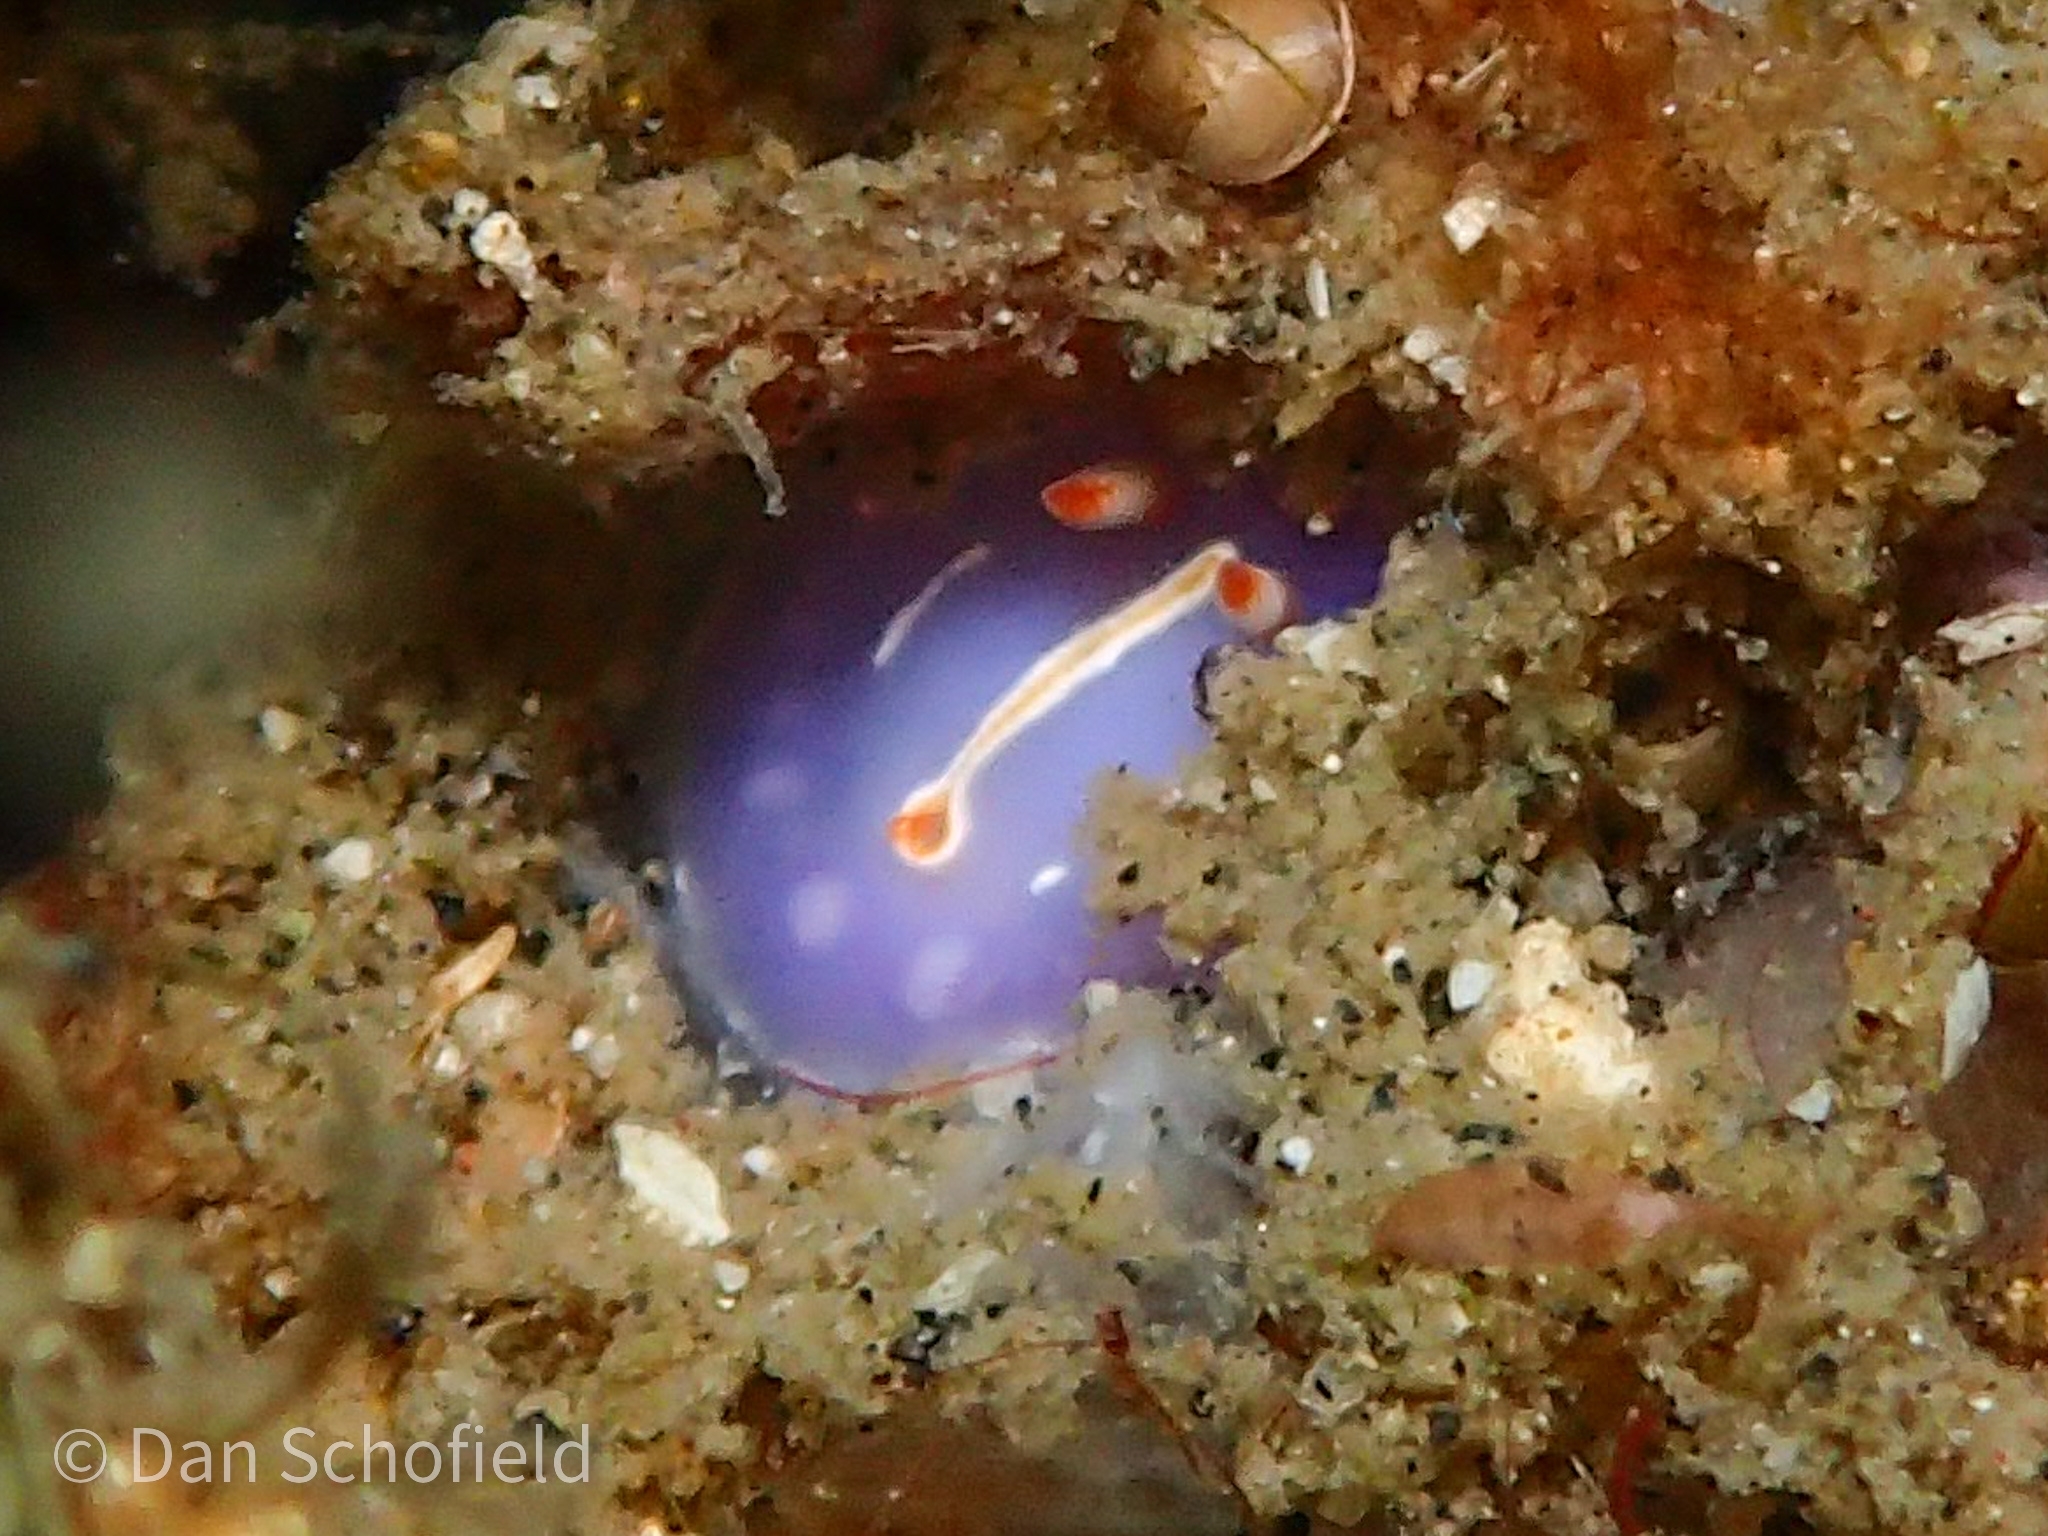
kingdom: Animalia
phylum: Mollusca
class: Gastropoda
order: Nudibranchia
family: Chromodorididae
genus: Mexichromis
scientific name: Mexichromis trilineata
